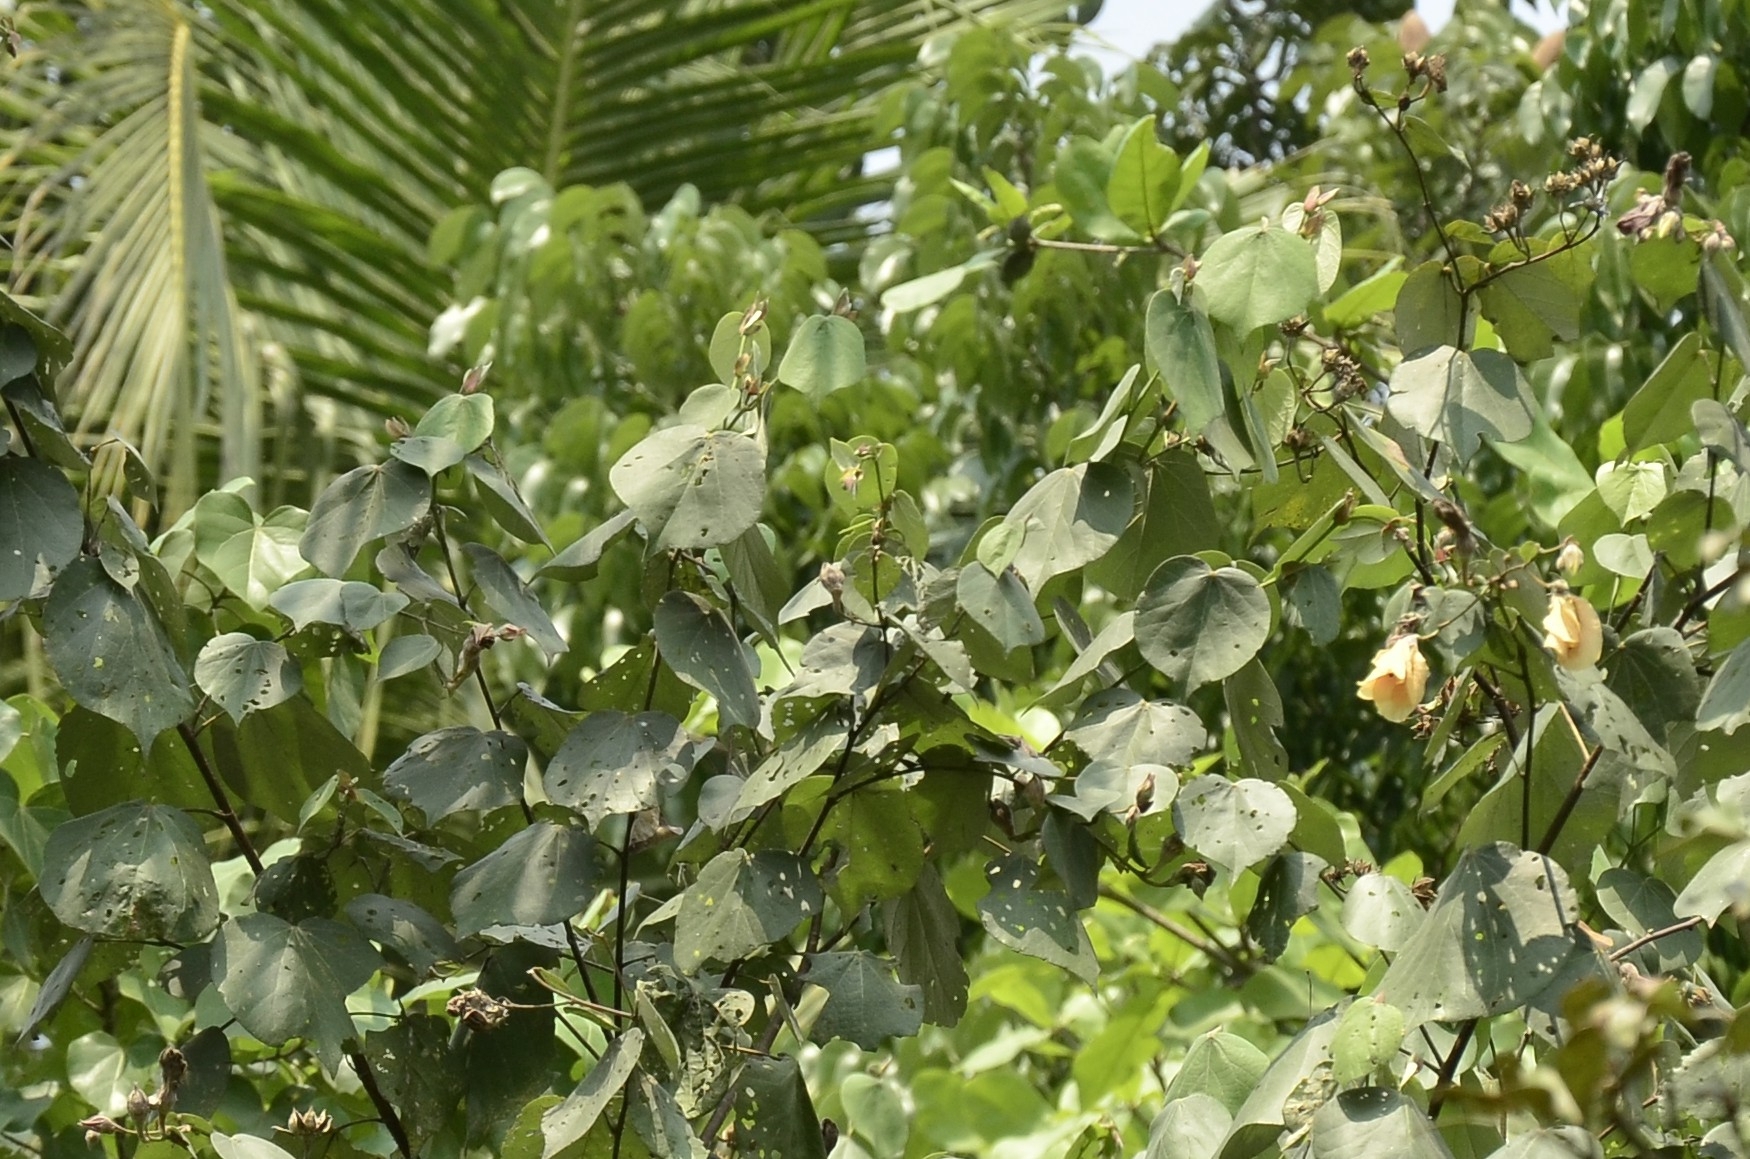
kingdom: Plantae
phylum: Tracheophyta
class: Magnoliopsida
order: Malvales
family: Malvaceae
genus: Talipariti
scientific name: Talipariti tiliaceum
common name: Sea hibiscus
